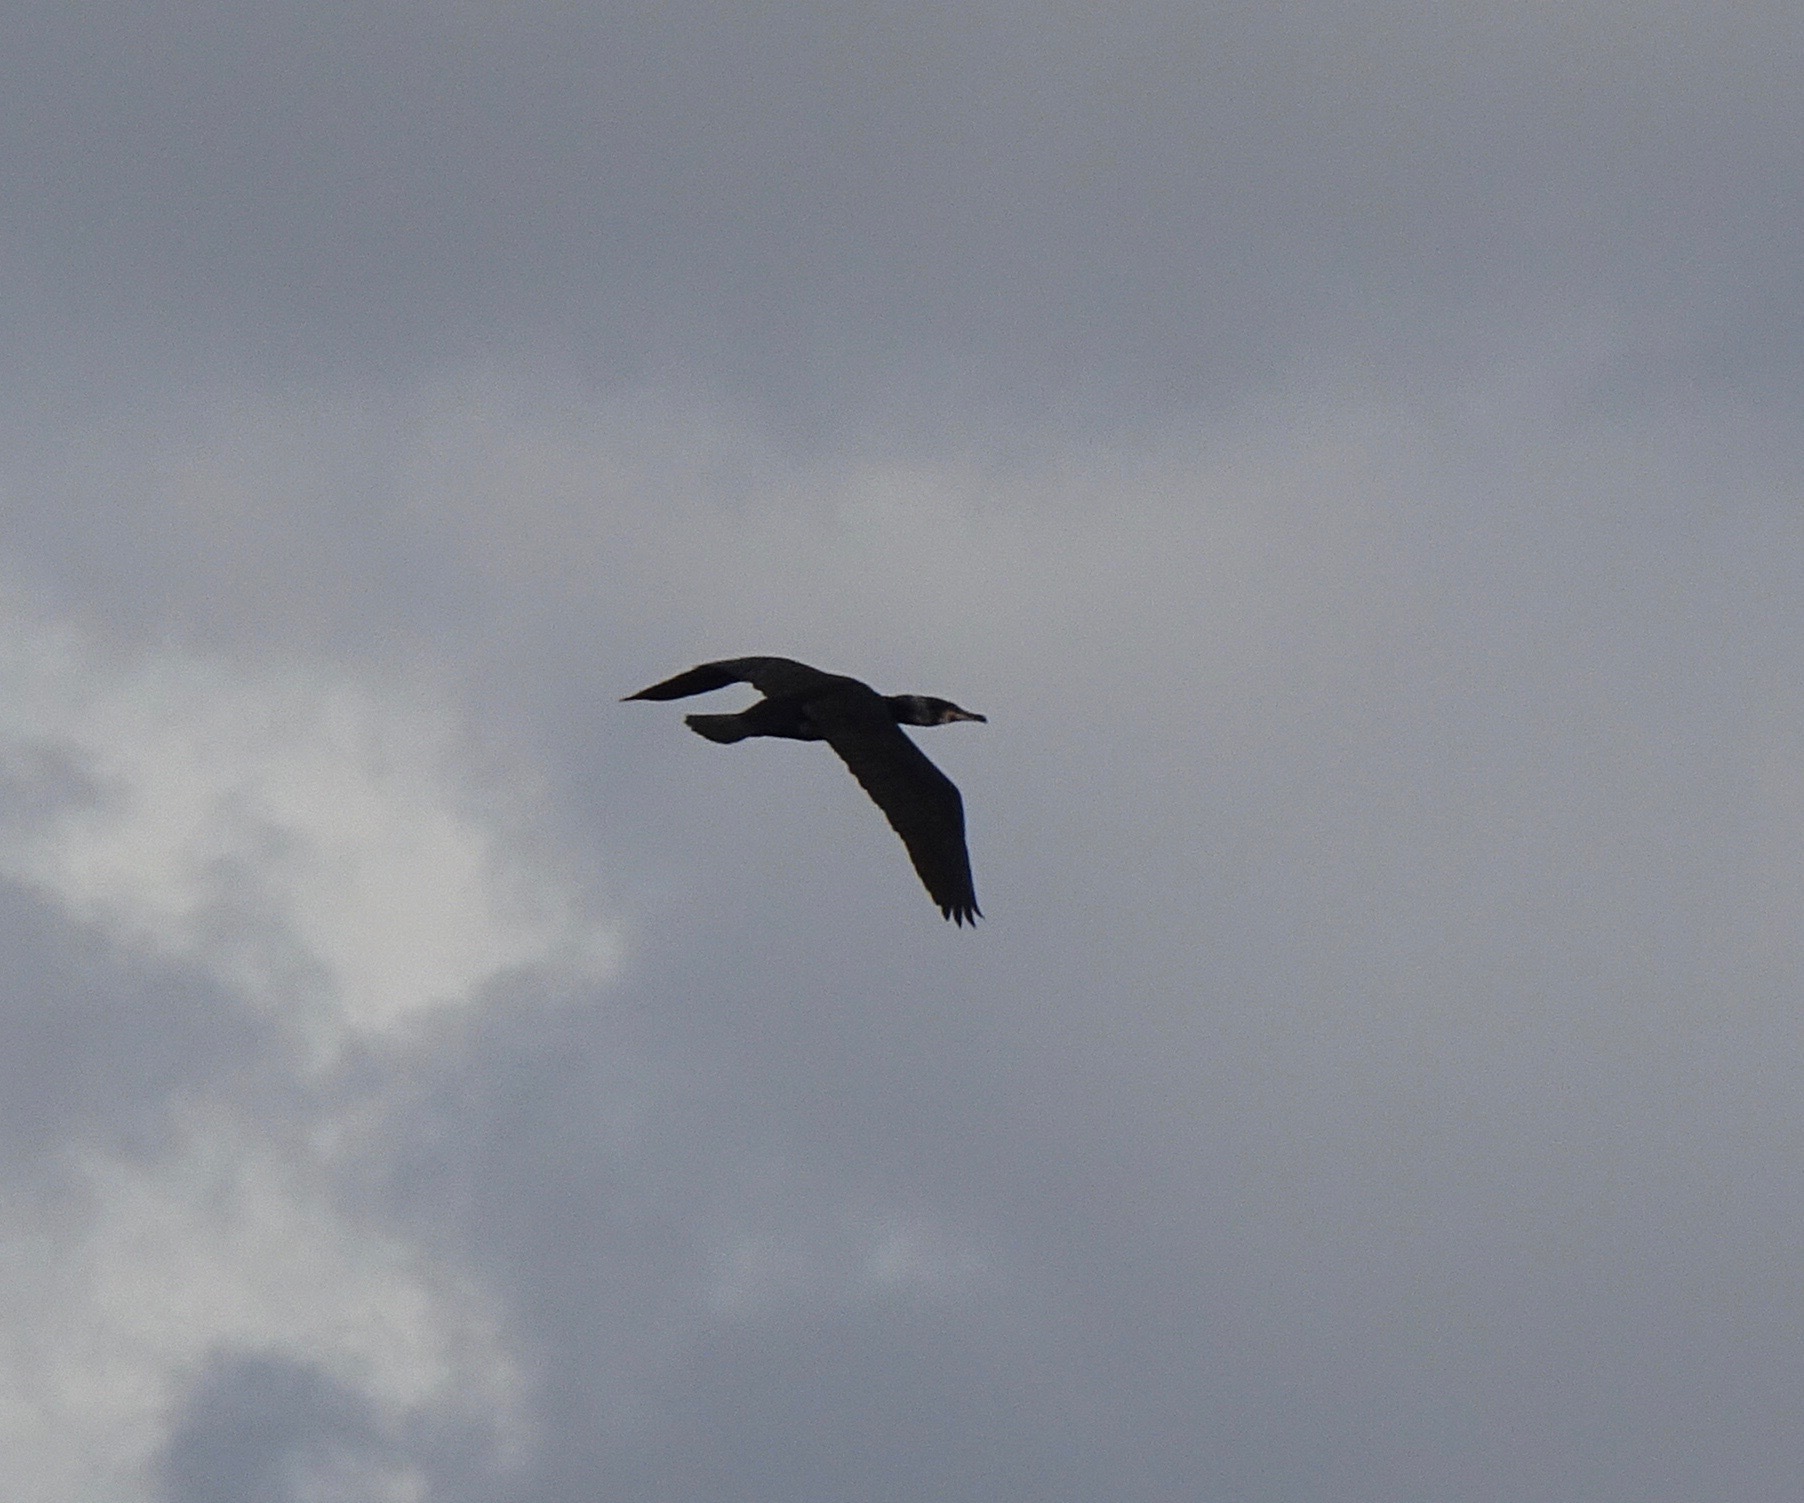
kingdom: Animalia
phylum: Chordata
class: Aves
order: Suliformes
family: Phalacrocoracidae
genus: Phalacrocorax
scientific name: Phalacrocorax carbo
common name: Great cormorant
